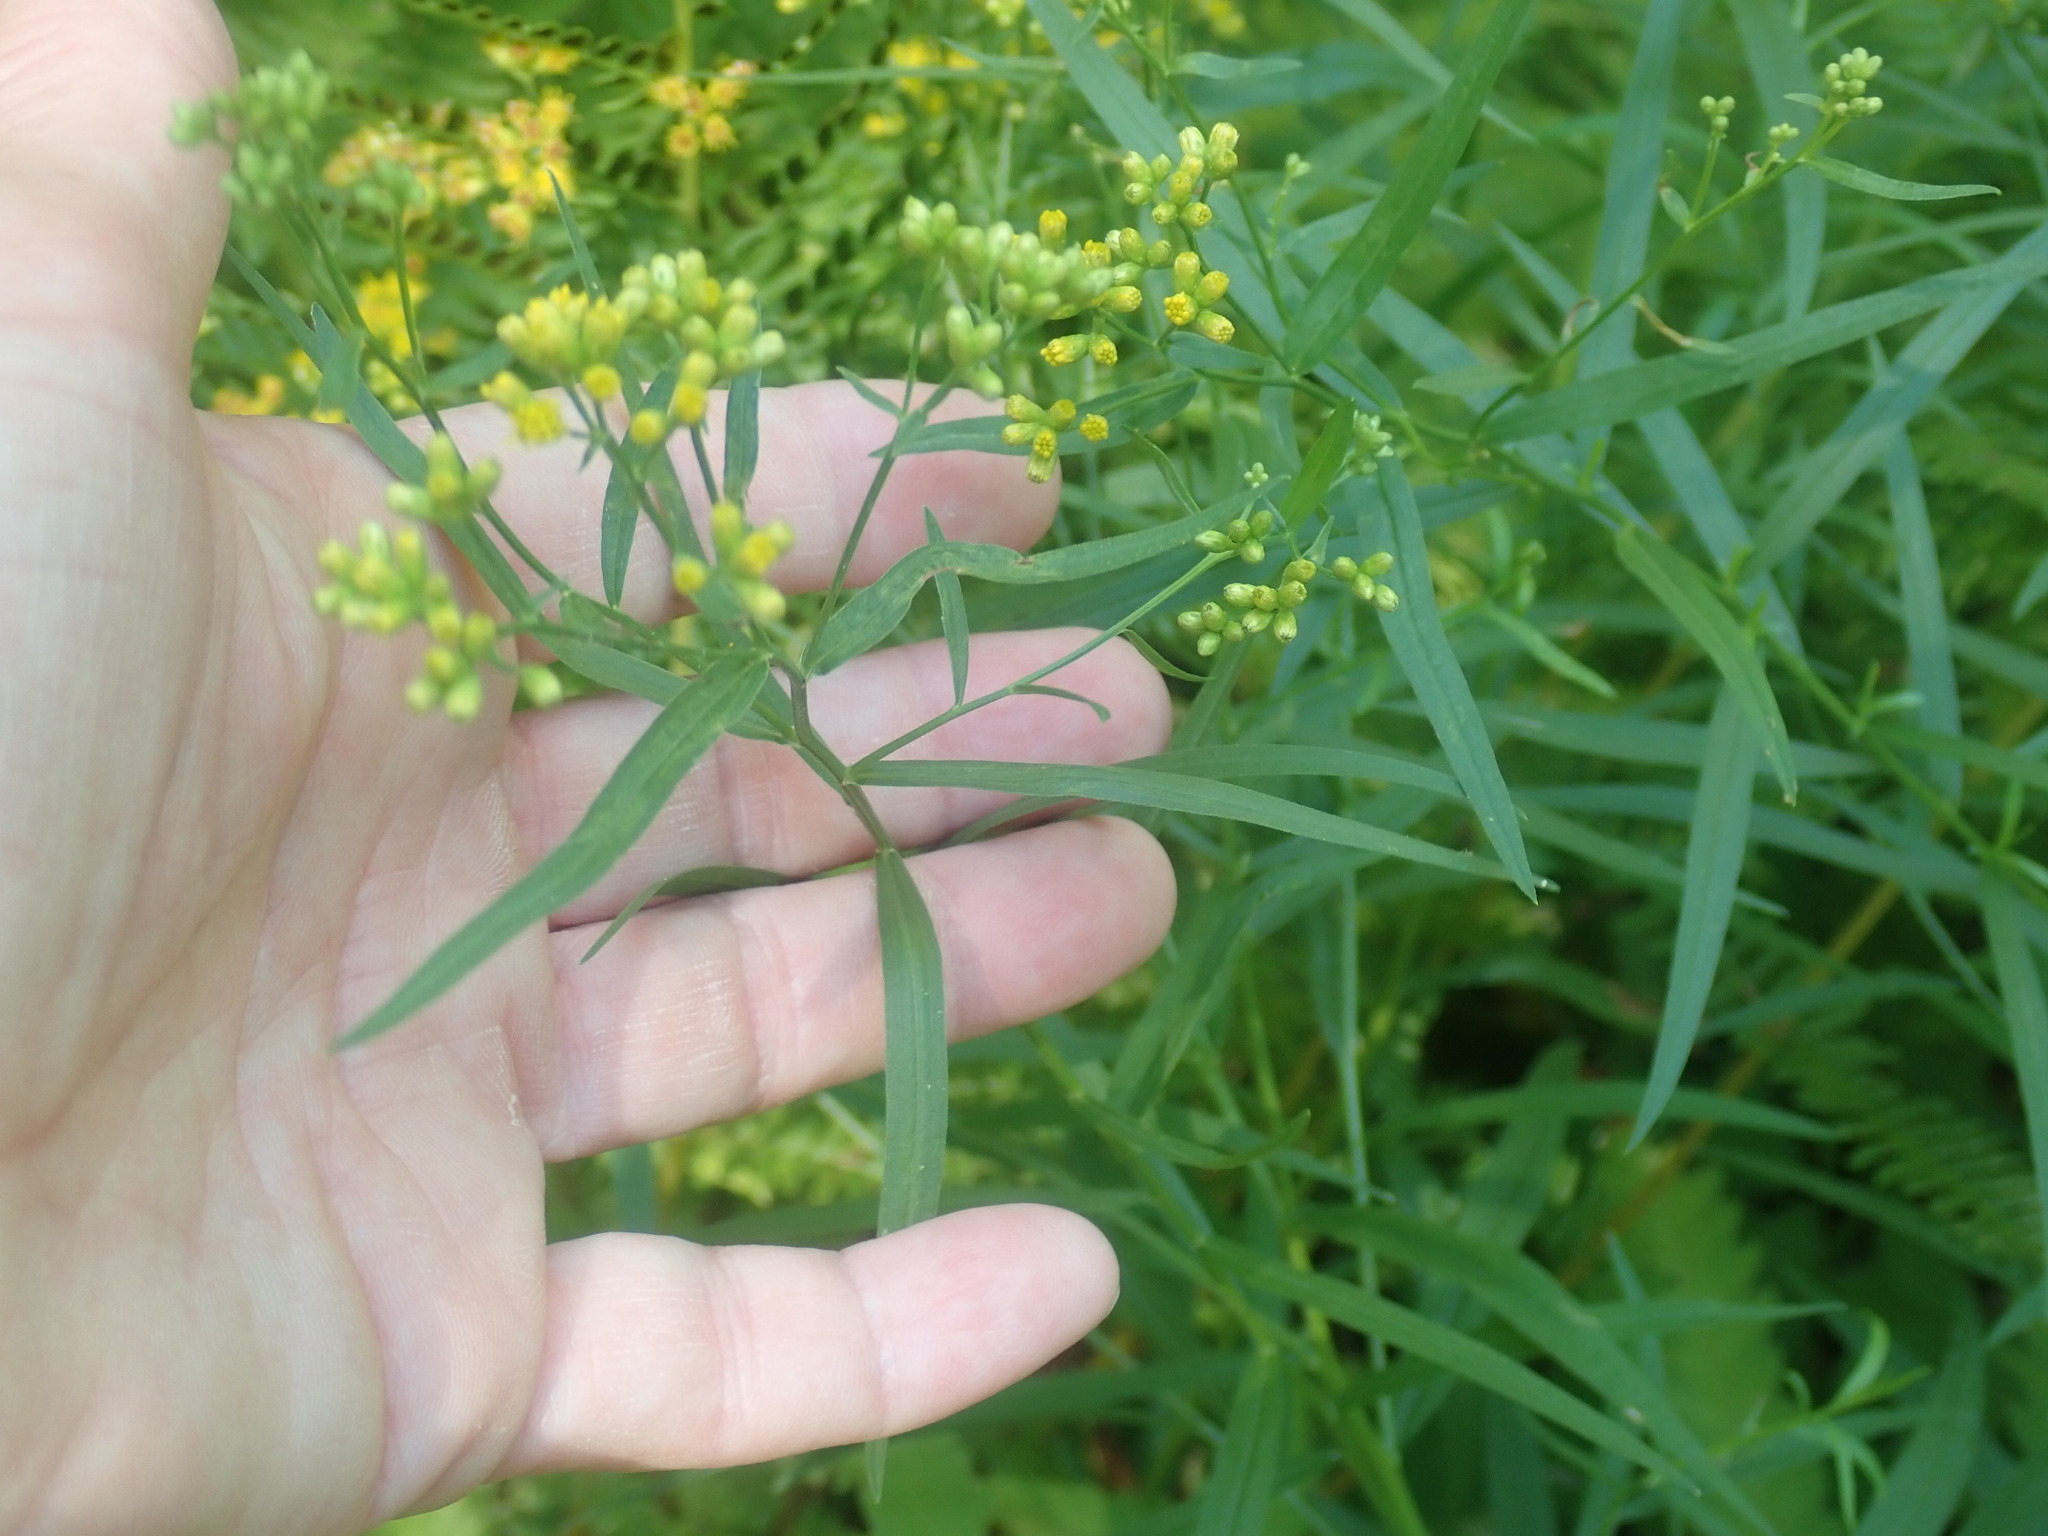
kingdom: Plantae
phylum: Tracheophyta
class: Magnoliopsida
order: Asterales
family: Asteraceae
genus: Euthamia
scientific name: Euthamia graminifolia
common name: Common goldentop
